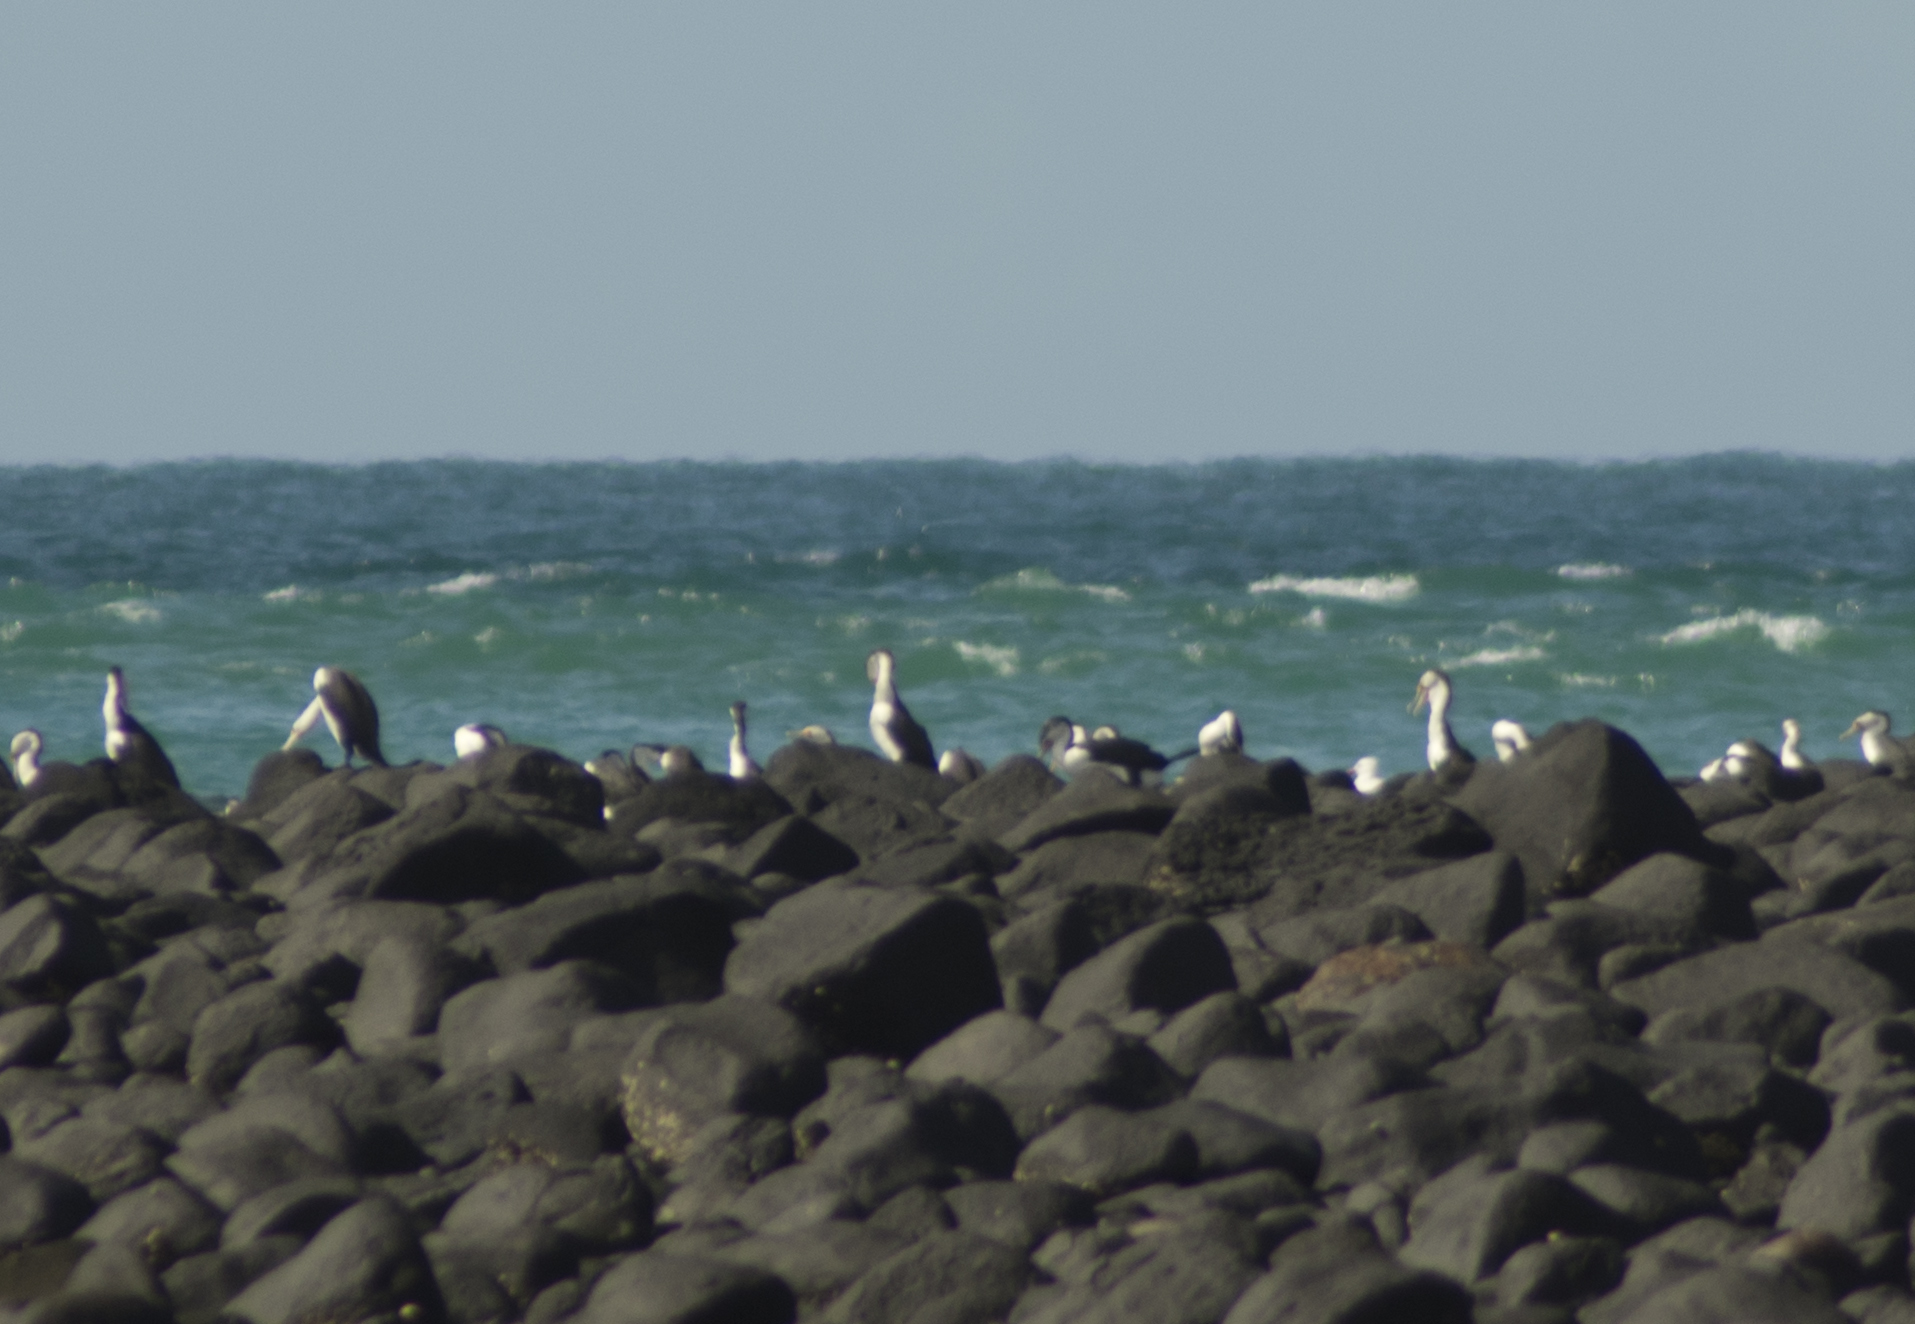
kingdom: Animalia
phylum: Chordata
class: Aves
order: Suliformes
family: Phalacrocoracidae
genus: Phalacrocorax
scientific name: Phalacrocorax varius
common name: Pied cormorant
